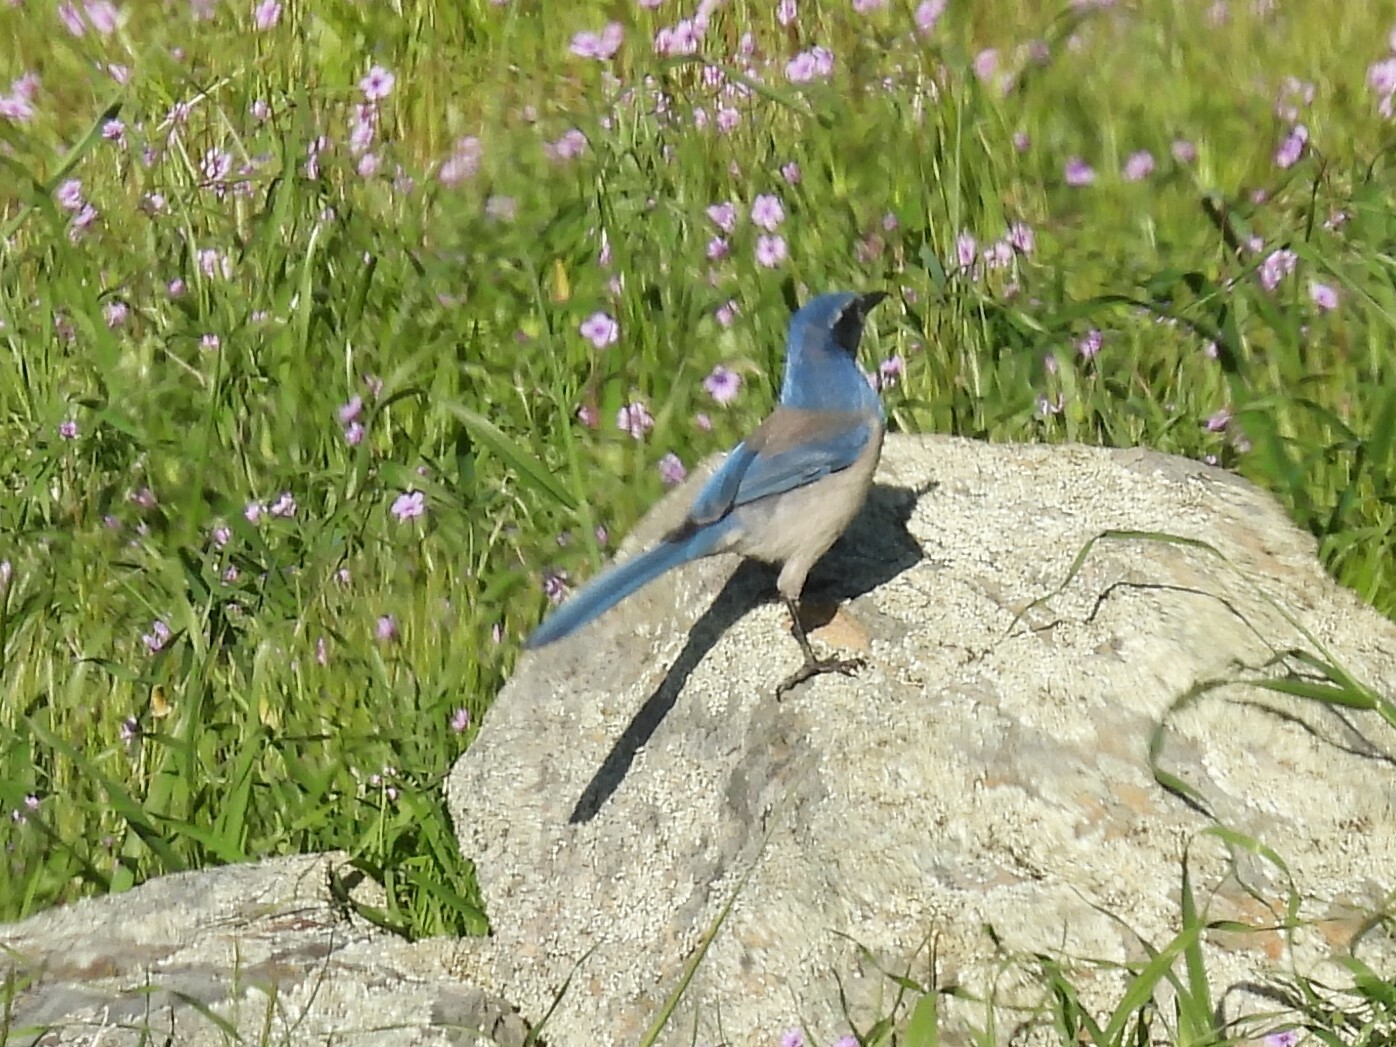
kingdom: Animalia
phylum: Chordata
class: Aves
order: Passeriformes
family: Corvidae
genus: Aphelocoma
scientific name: Aphelocoma californica
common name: California scrub-jay
